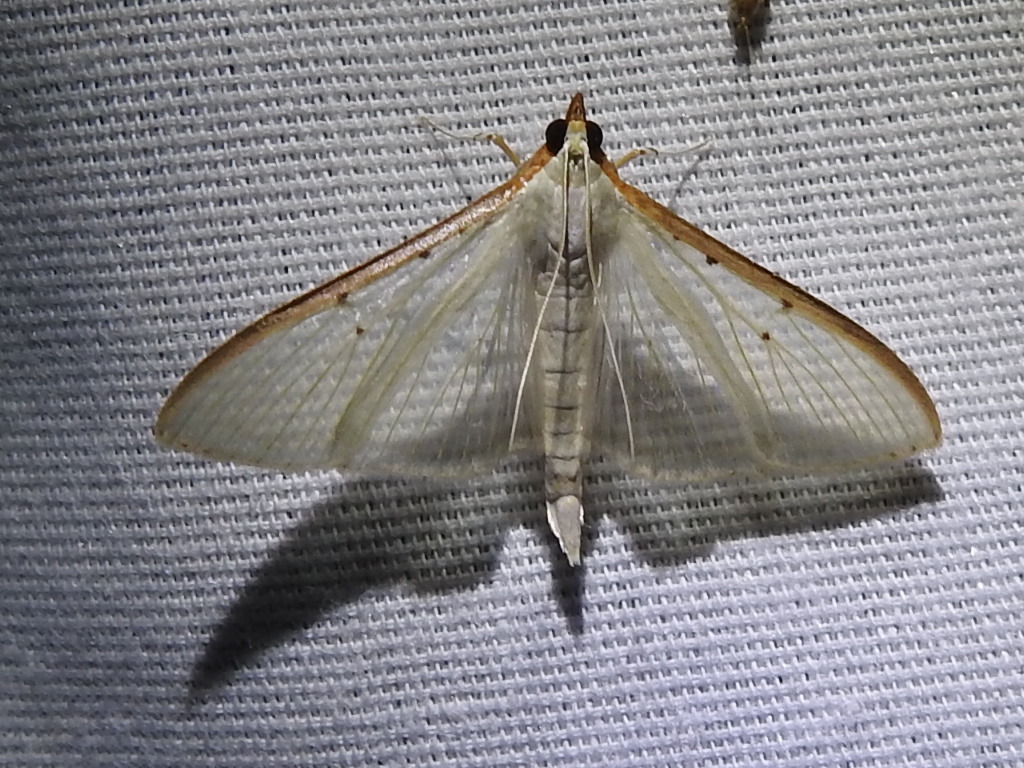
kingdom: Animalia
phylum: Arthropoda
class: Insecta
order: Lepidoptera
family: Crambidae
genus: Palpita
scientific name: Palpita quadristigmalis
